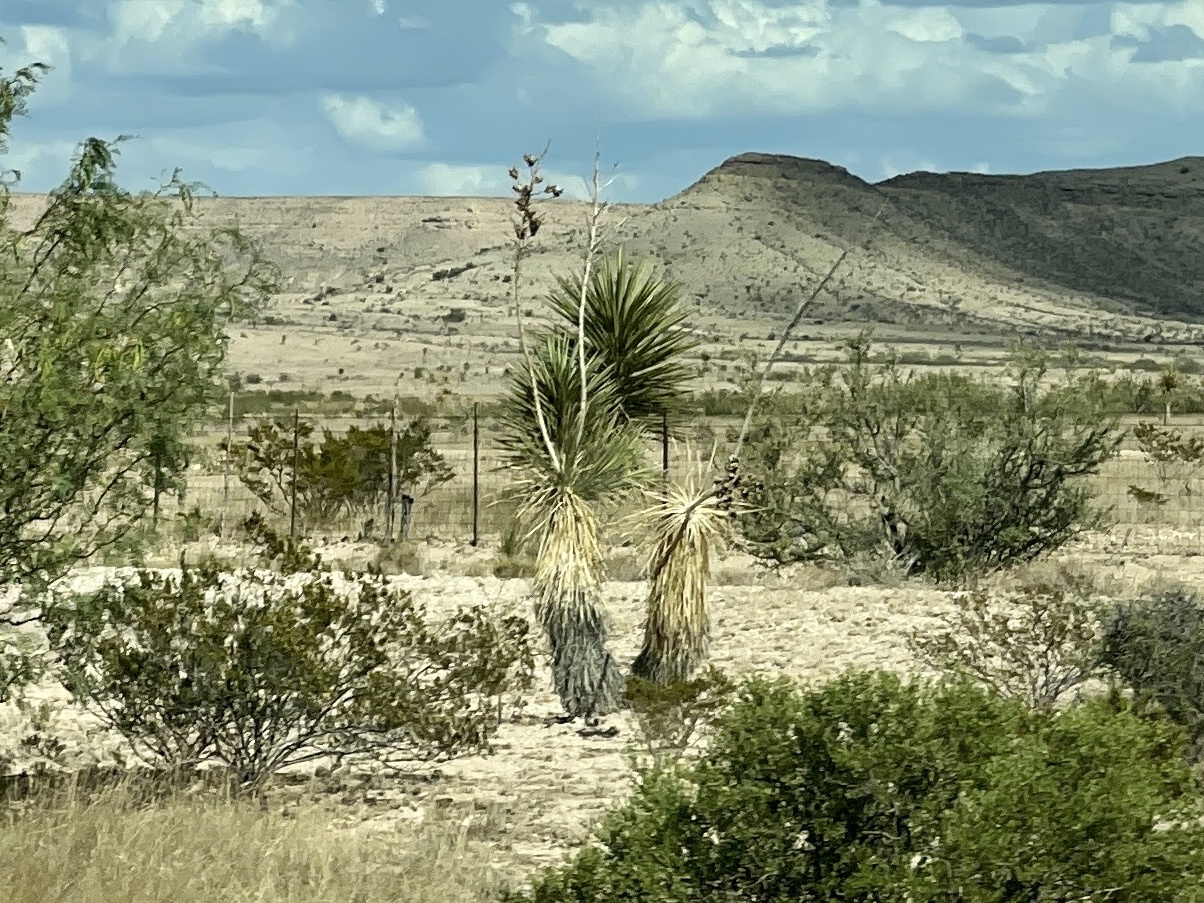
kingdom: Plantae
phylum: Tracheophyta
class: Liliopsida
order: Asparagales
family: Asparagaceae
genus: Yucca
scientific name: Yucca elata
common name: Palmella
